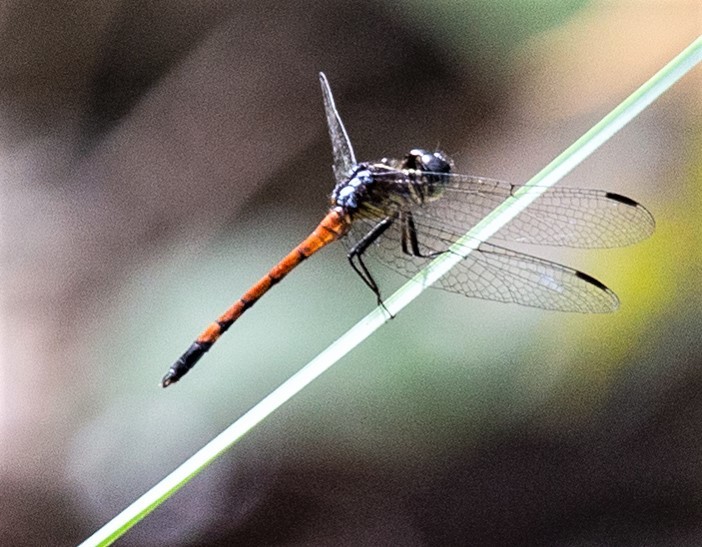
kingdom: Animalia
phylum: Arthropoda
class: Insecta
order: Odonata
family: Libellulidae
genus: Dasythemis
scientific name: Dasythemis esmeralda
